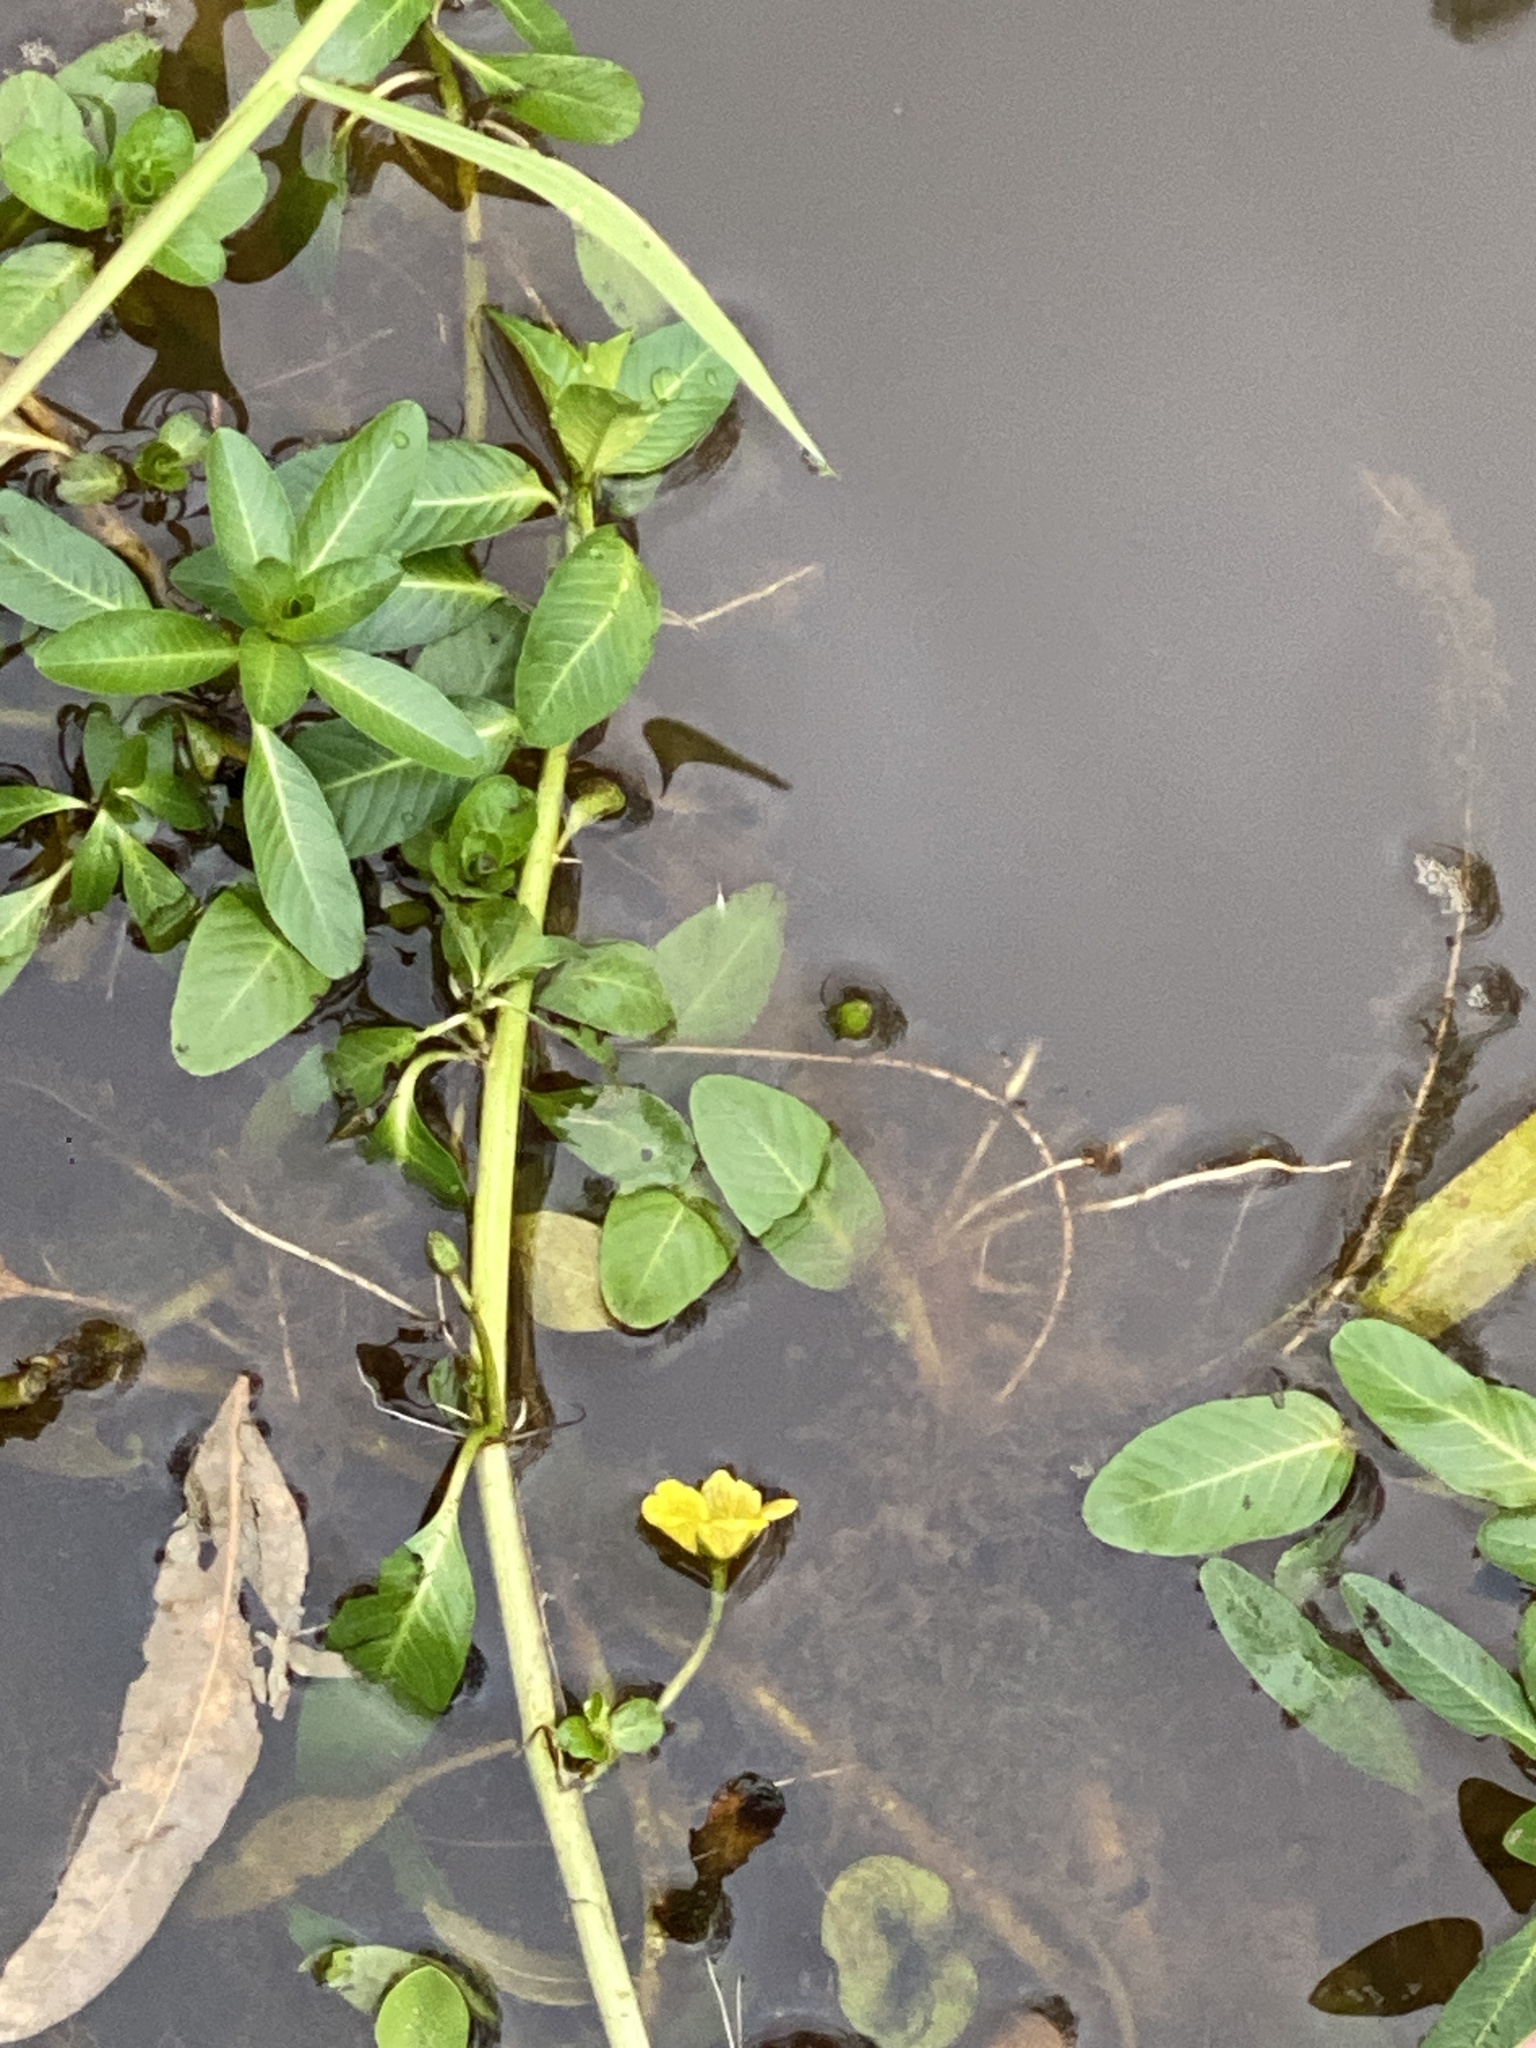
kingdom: Plantae
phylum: Tracheophyta
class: Magnoliopsida
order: Myrtales
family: Onagraceae
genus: Ludwigia
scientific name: Ludwigia peploides
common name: Floating primrose-willow
